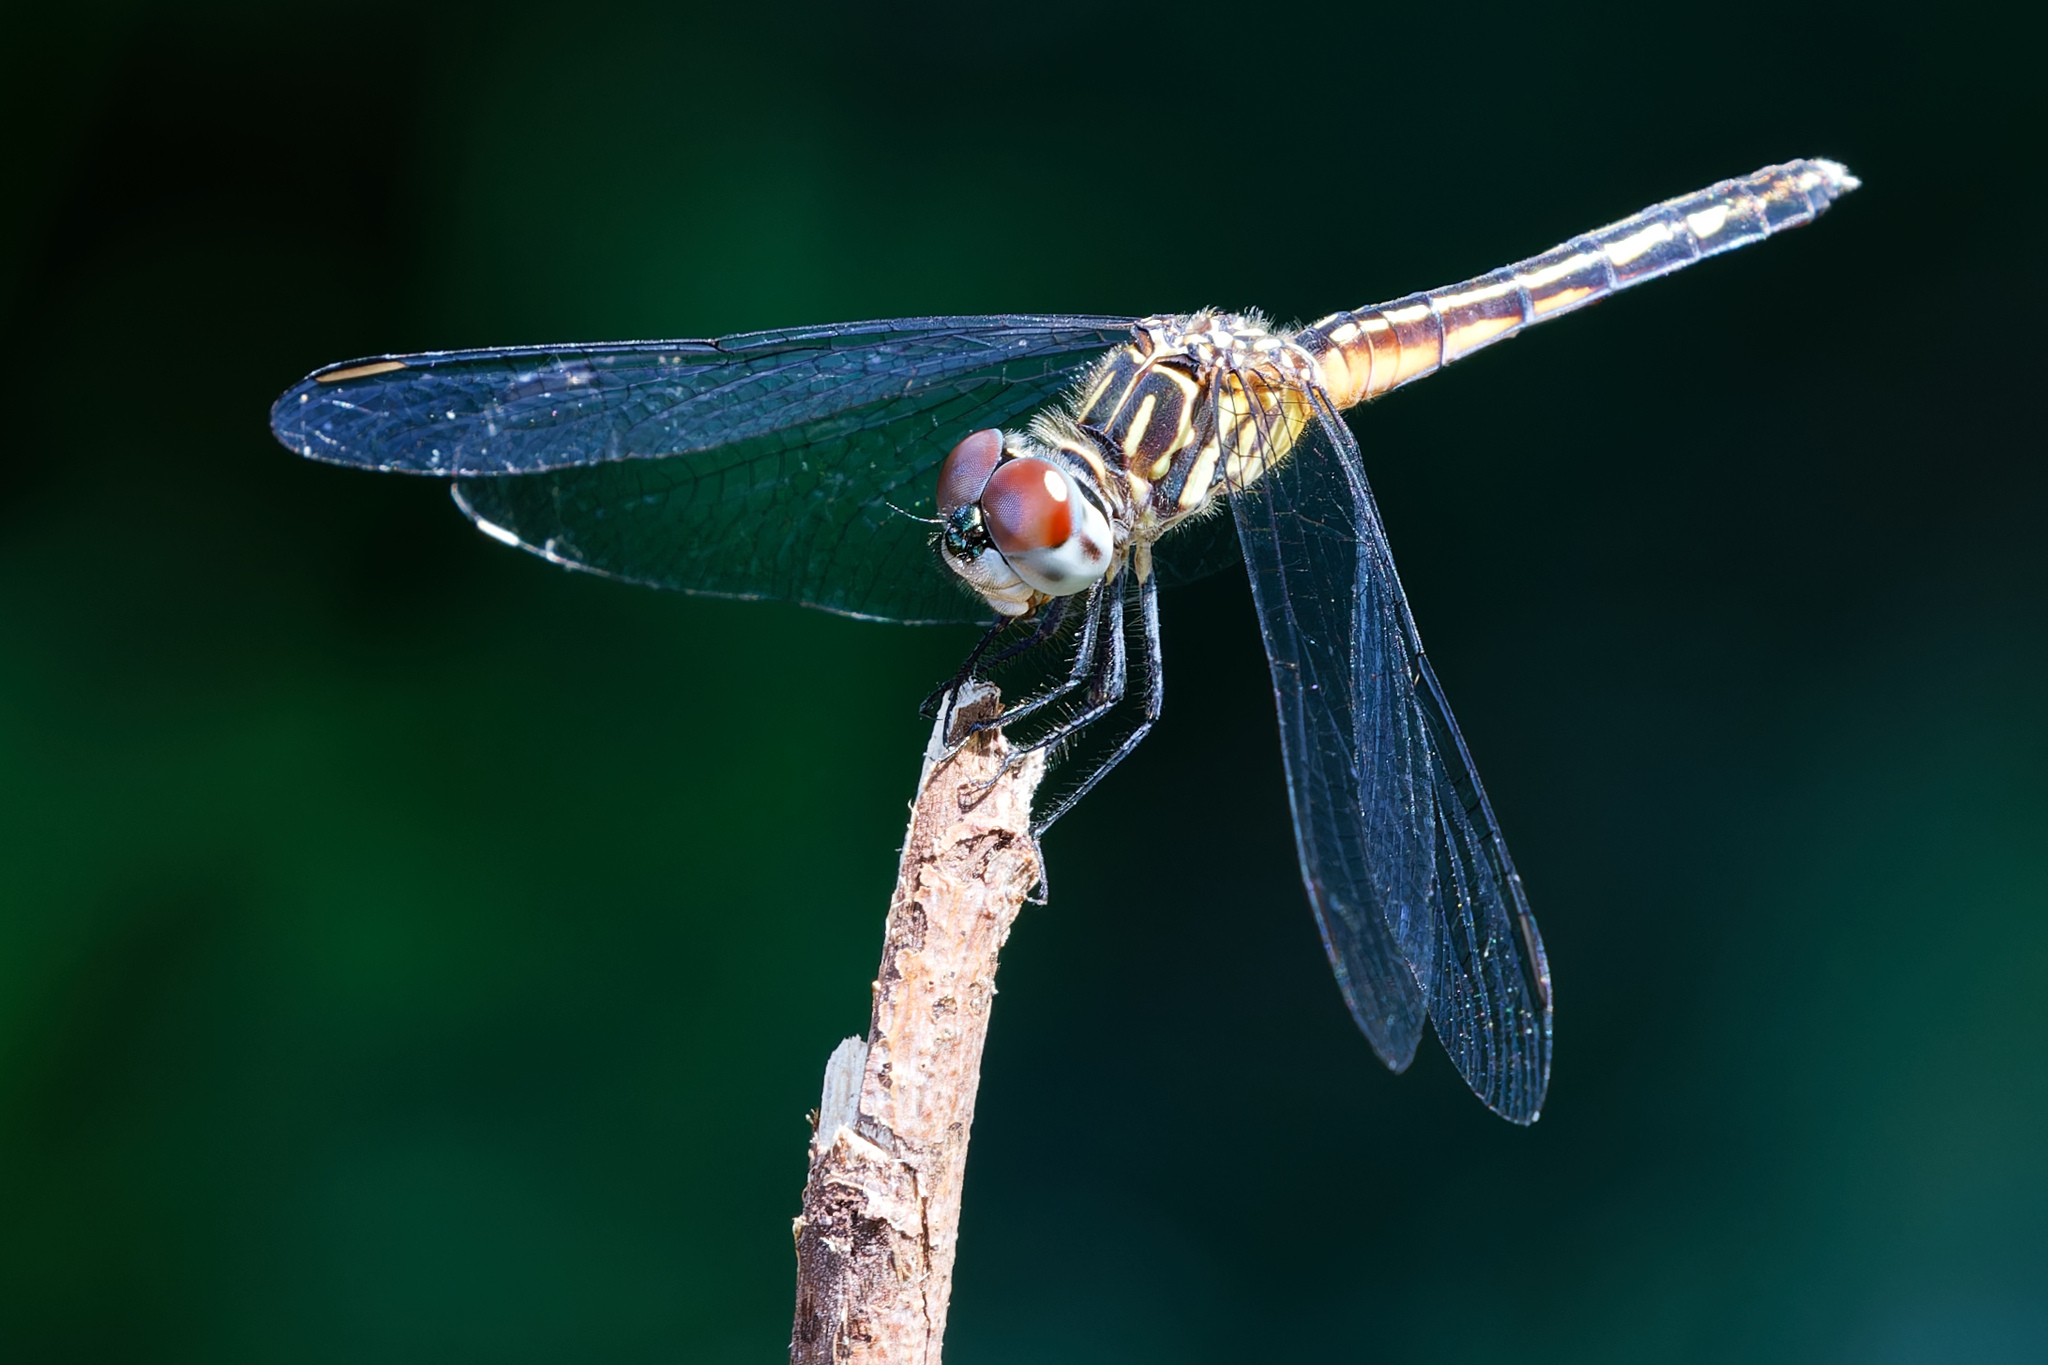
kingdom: Animalia
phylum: Arthropoda
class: Insecta
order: Odonata
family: Libellulidae
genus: Pachydiplax
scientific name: Pachydiplax longipennis
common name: Blue dasher
